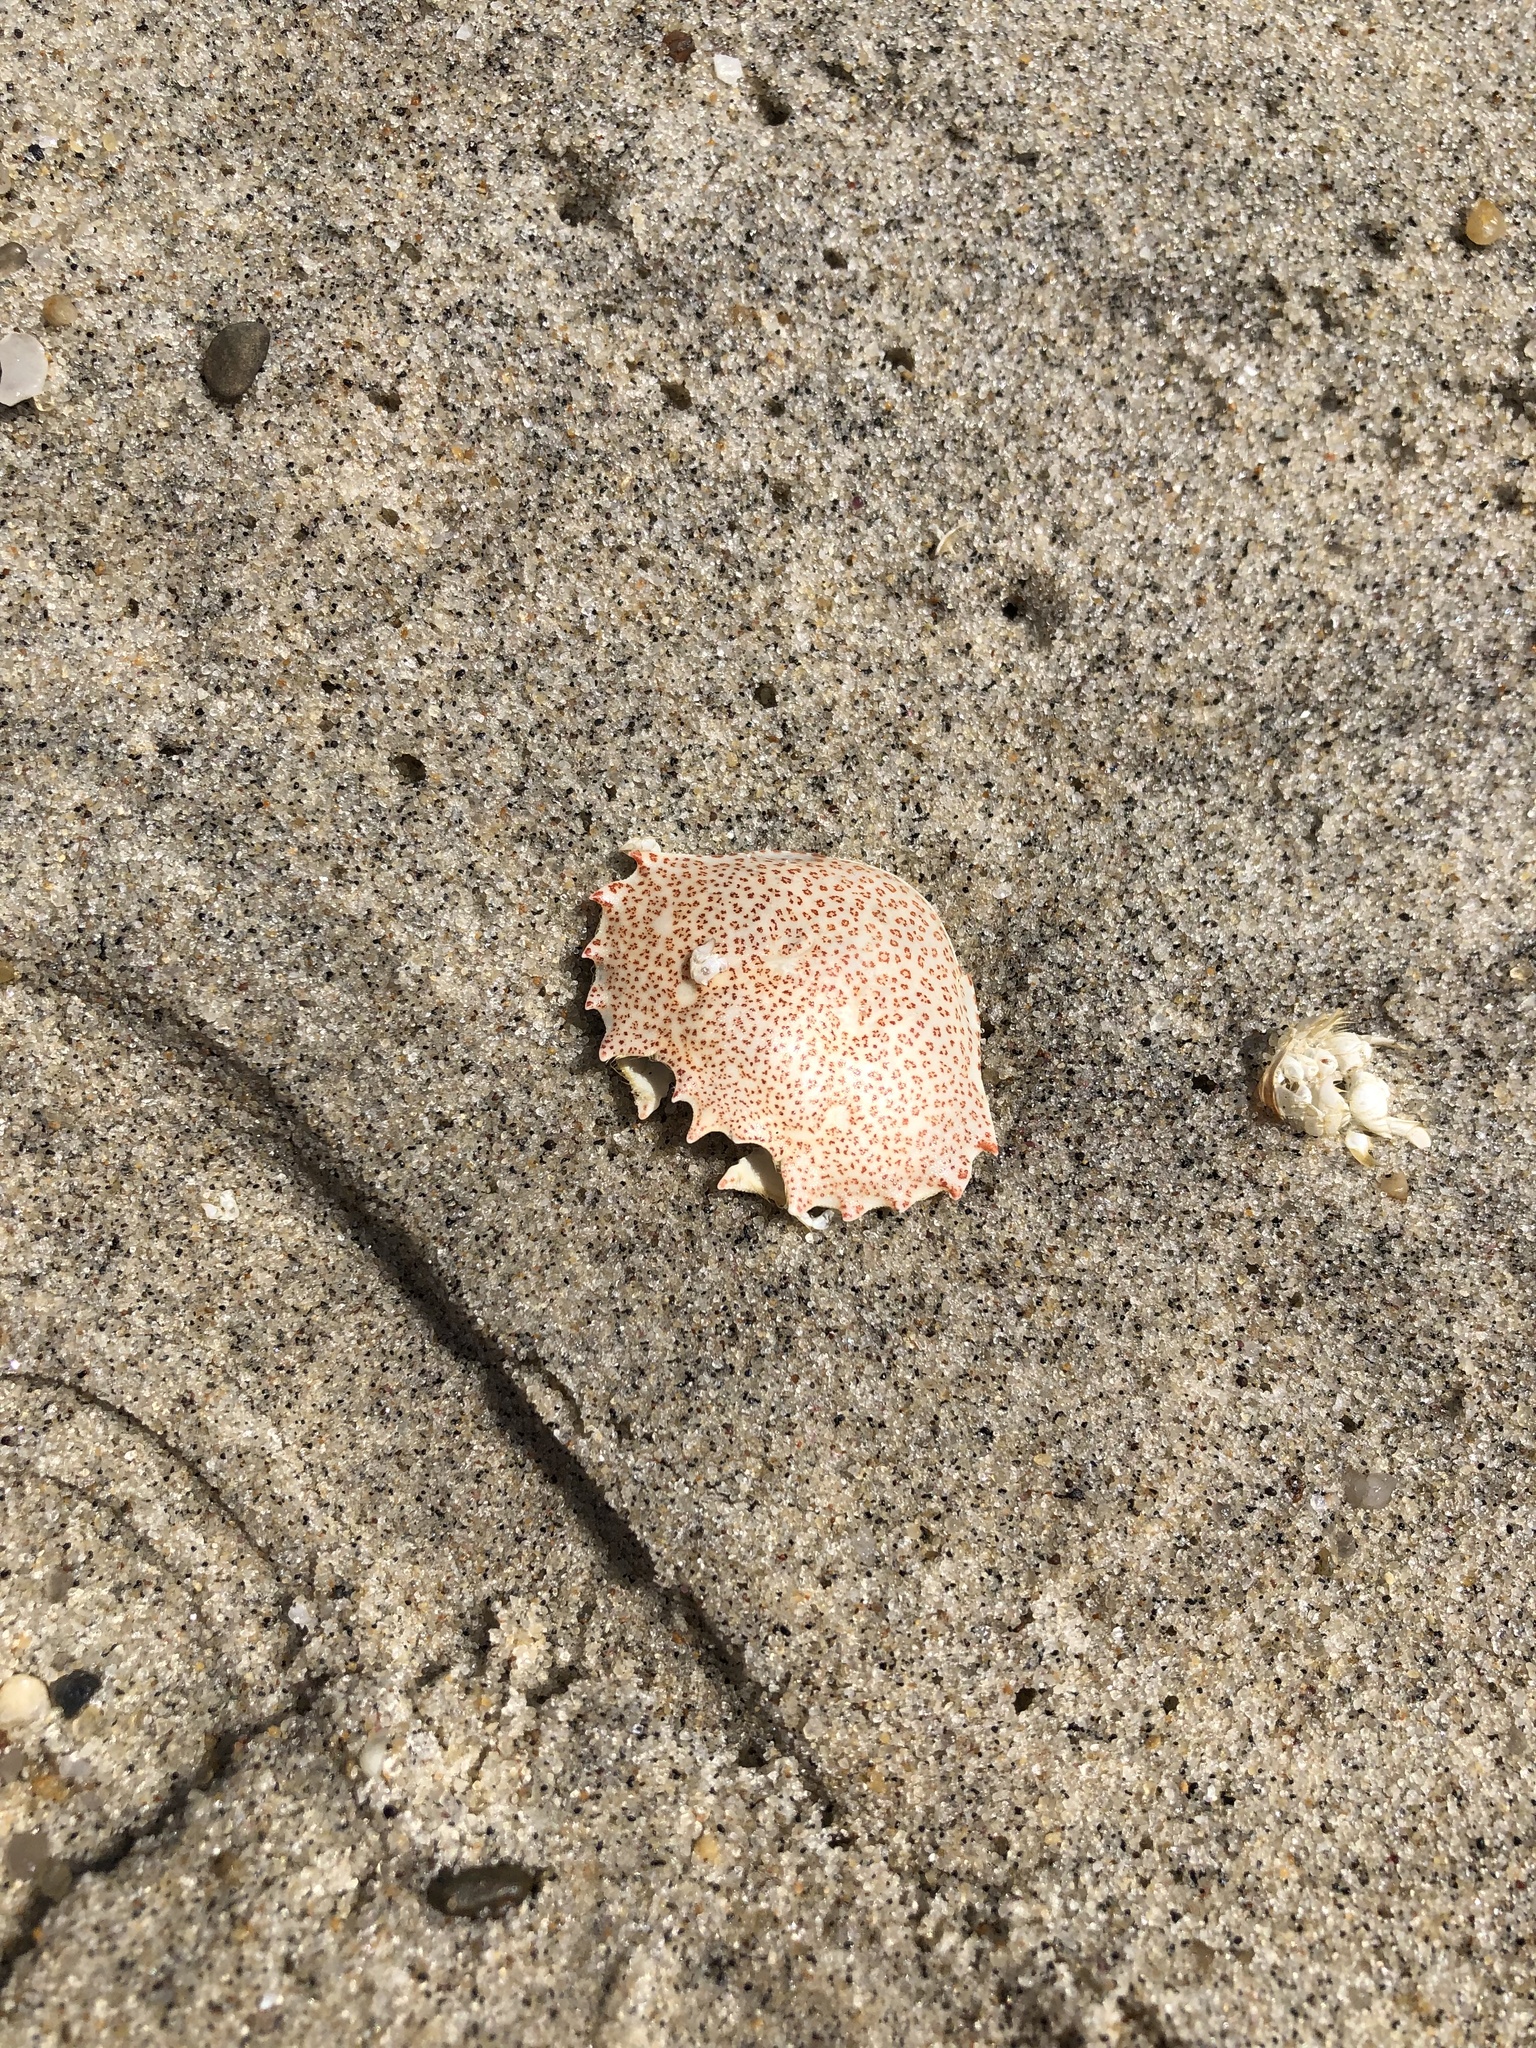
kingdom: Animalia
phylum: Arthropoda
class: Malacostraca
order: Decapoda
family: Ovalipidae
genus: Ovalipes
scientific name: Ovalipes ocellatus
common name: Lady crab
